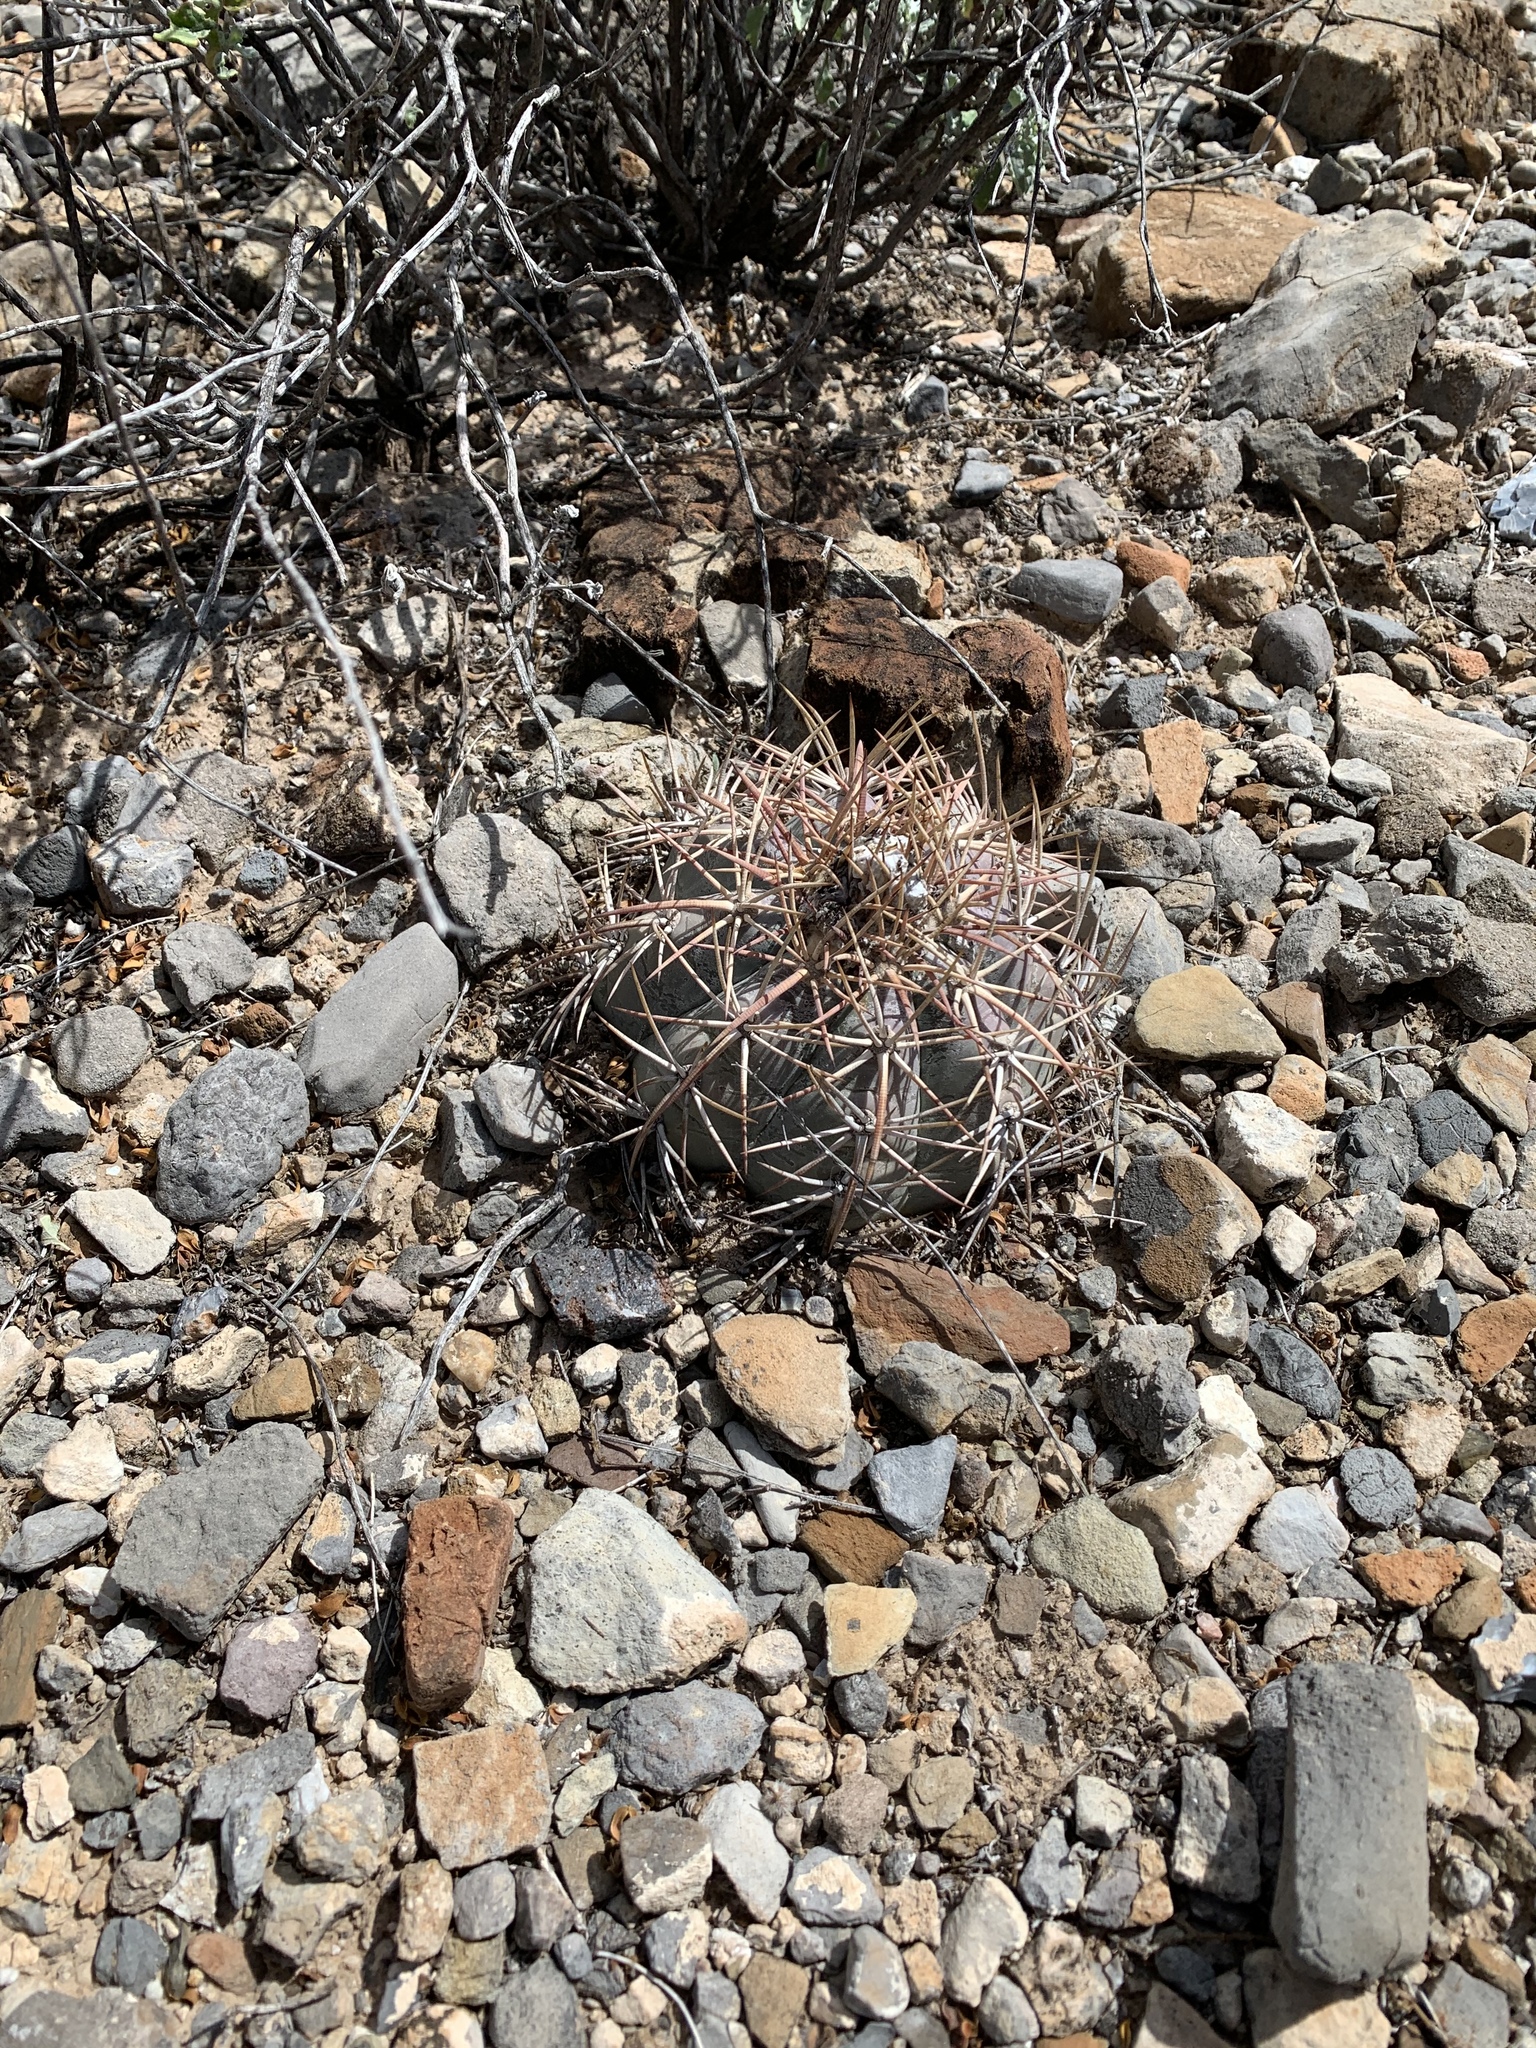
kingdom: Plantae
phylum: Tracheophyta
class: Magnoliopsida
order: Caryophyllales
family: Cactaceae
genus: Echinocactus
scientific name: Echinocactus horizonthalonius
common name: Devilshead
